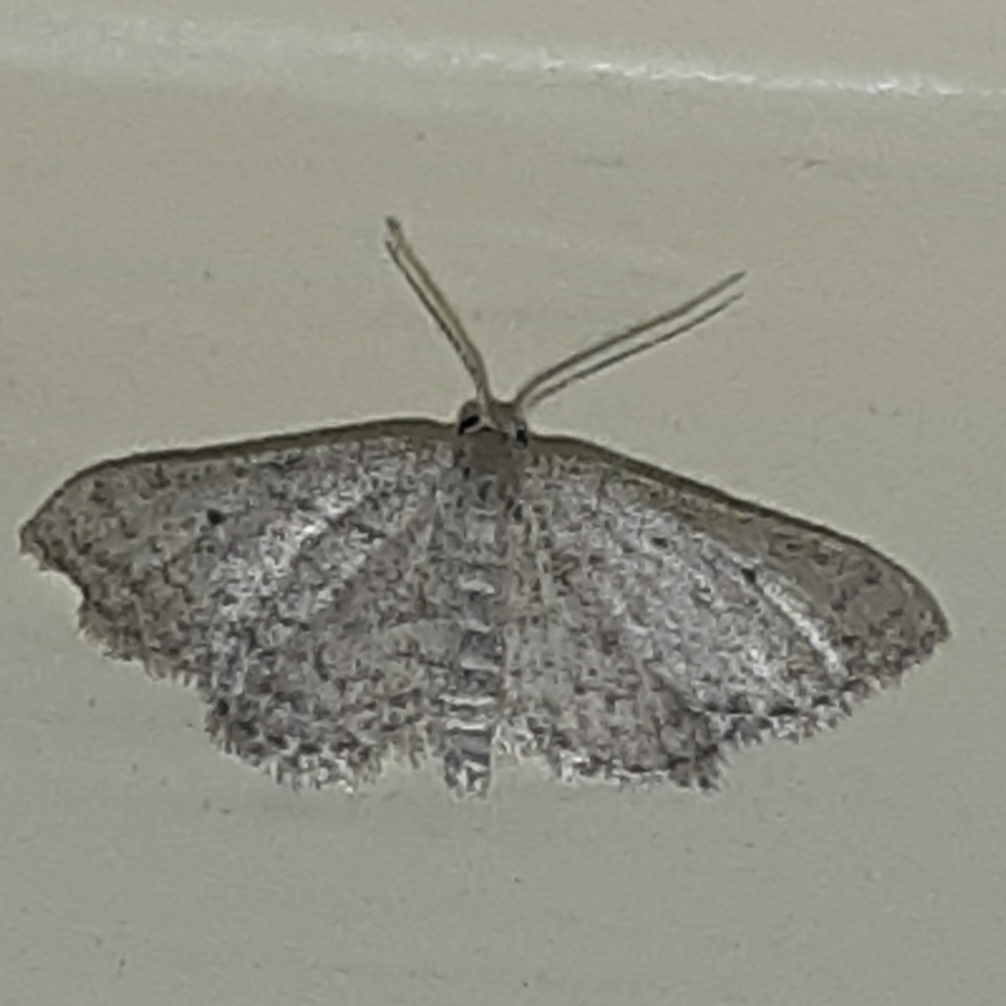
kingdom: Animalia
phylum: Arthropoda
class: Insecta
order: Lepidoptera
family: Geometridae
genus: Lobocleta
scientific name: Lobocleta ossularia
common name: Drab brown wave
